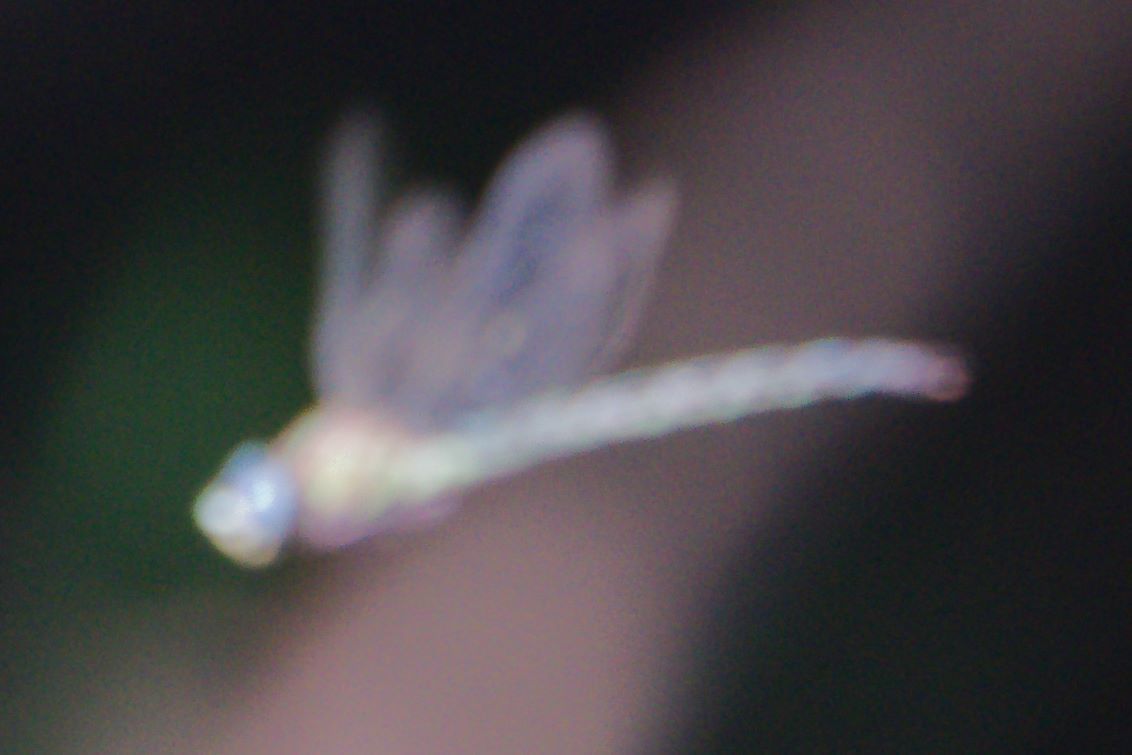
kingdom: Animalia
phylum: Arthropoda
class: Insecta
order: Odonata
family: Aeshnidae
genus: Nasiaeschna
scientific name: Nasiaeschna pentacantha
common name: Cyrano darner
